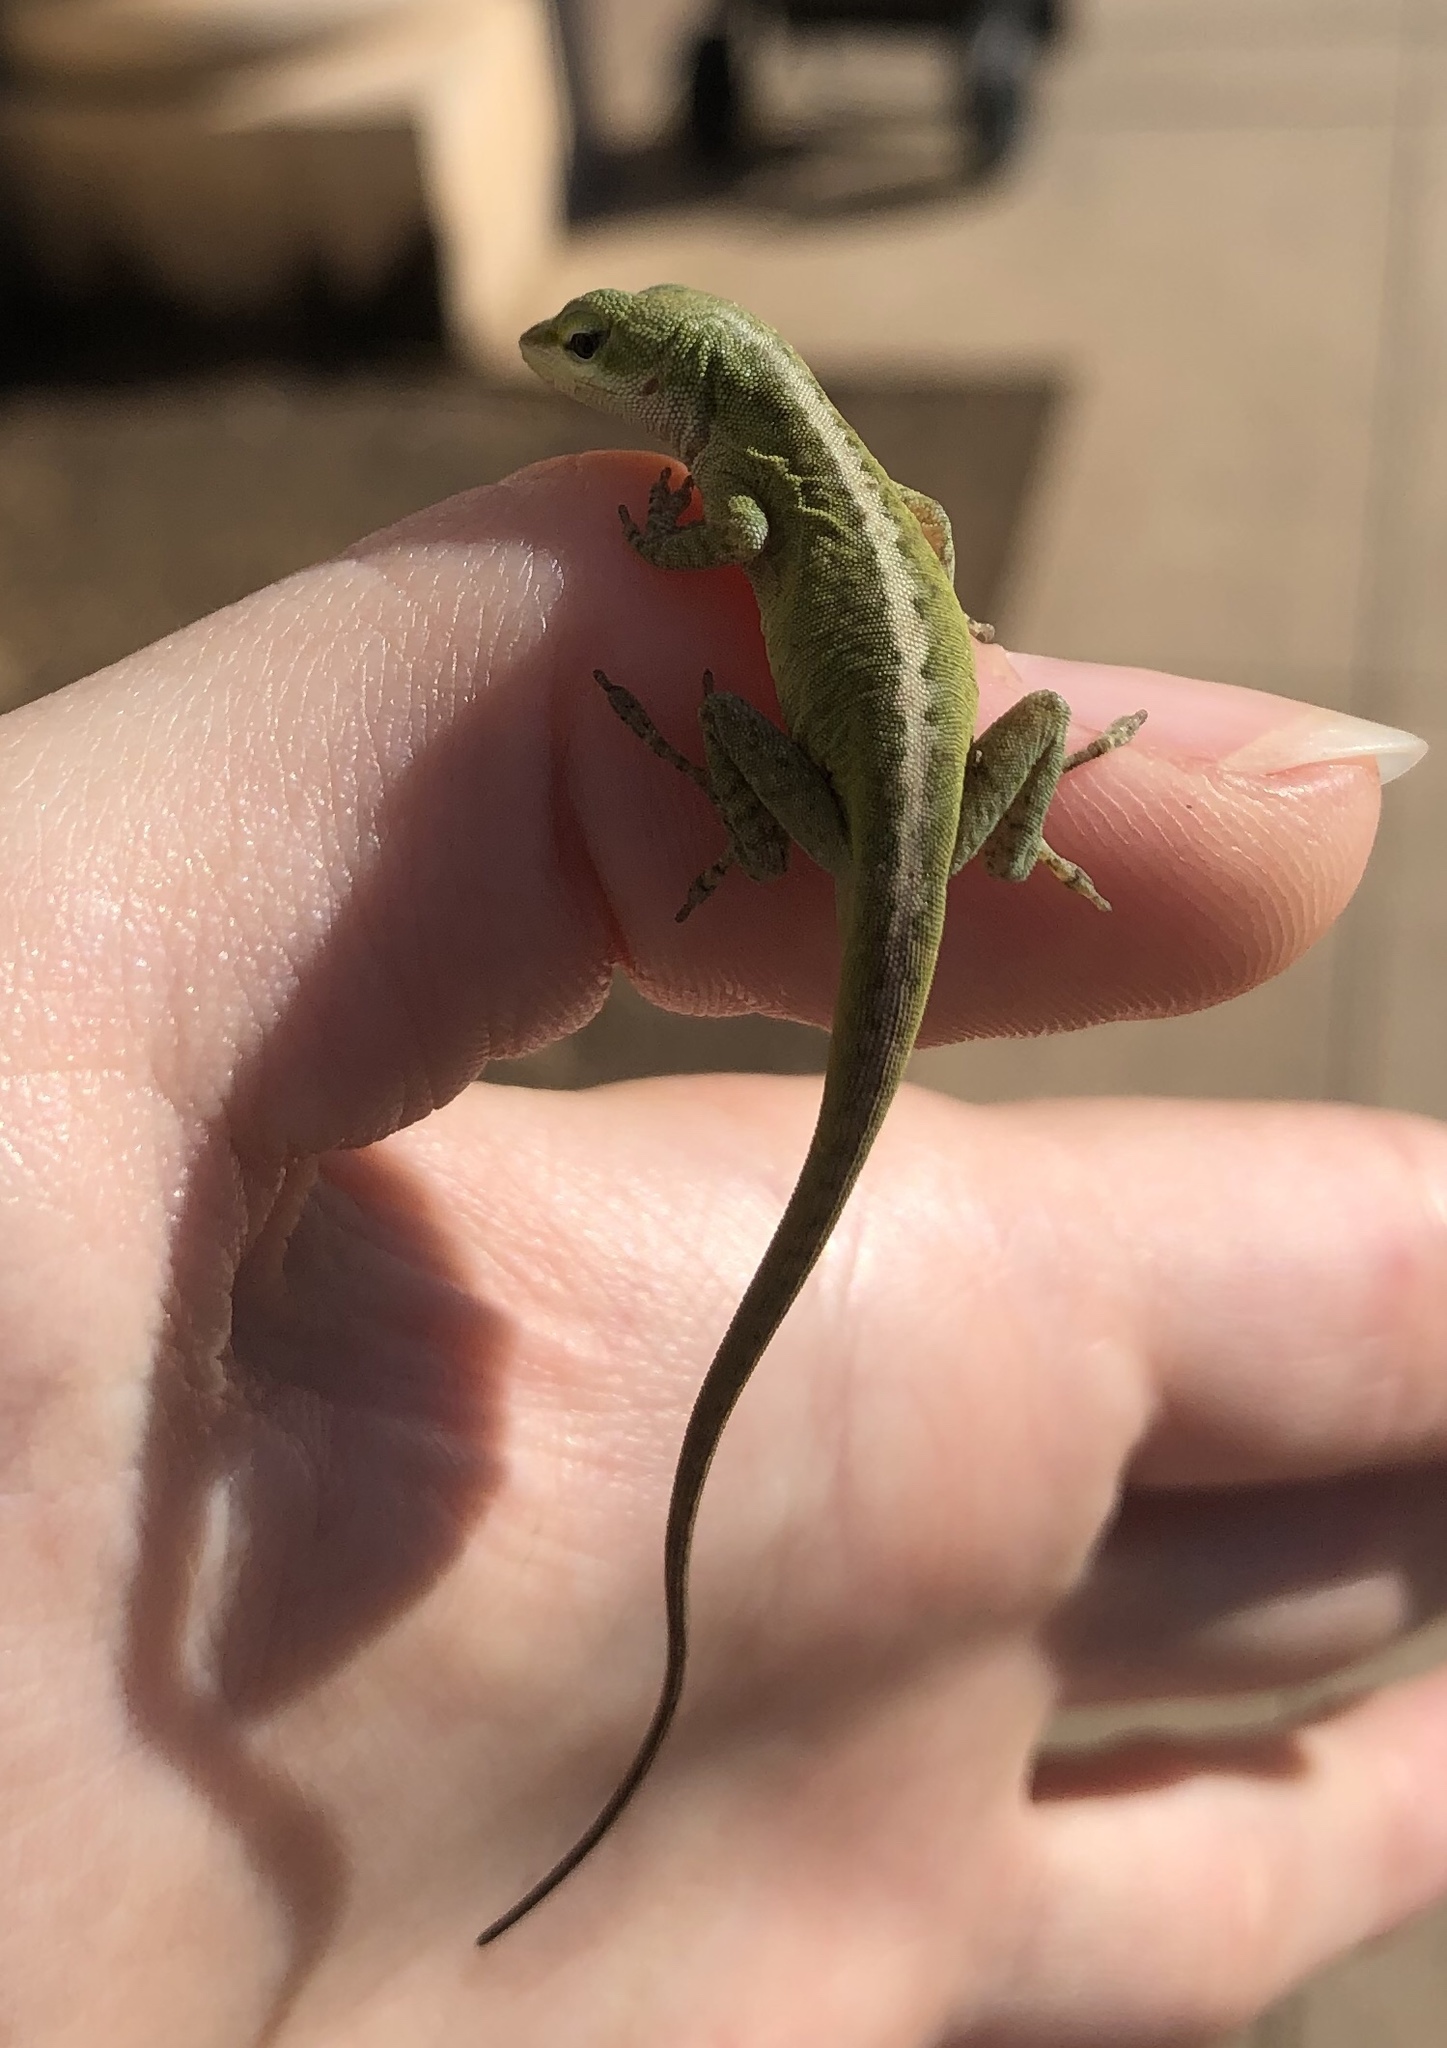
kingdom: Animalia
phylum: Chordata
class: Squamata
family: Dactyloidae
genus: Anolis
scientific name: Anolis carolinensis
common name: Green anole
